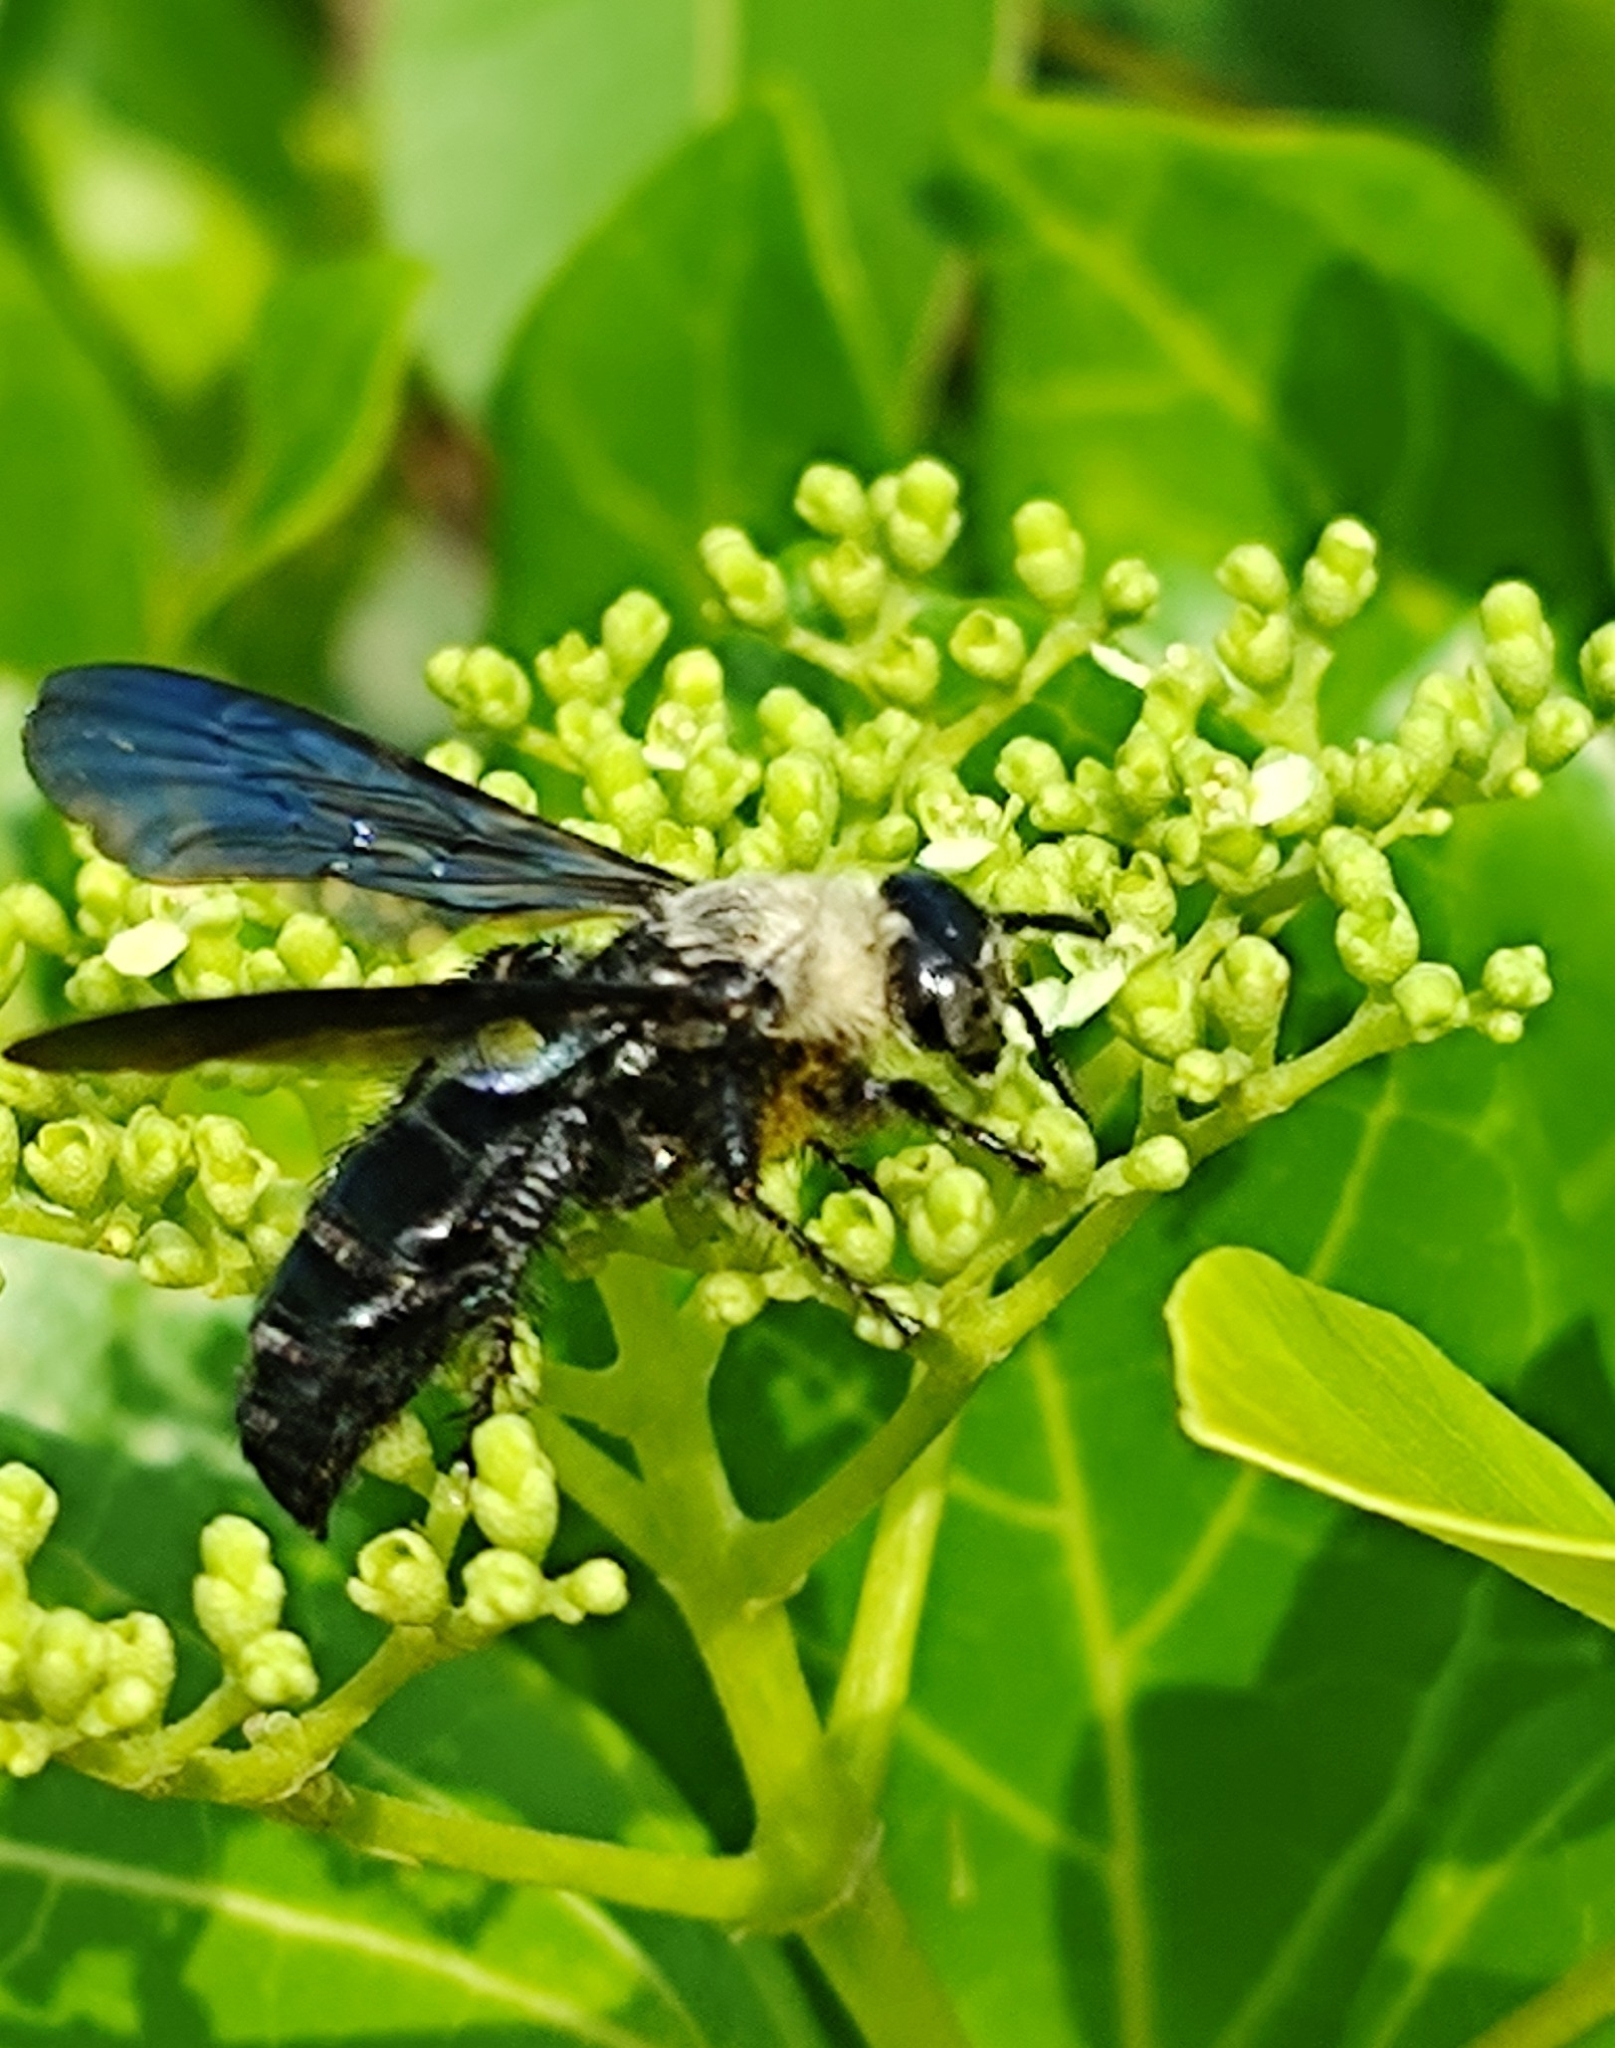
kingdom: Animalia
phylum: Arthropoda
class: Insecta
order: Hymenoptera
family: Scoliidae
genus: Campsomeriella
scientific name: Campsomeriella collaris
